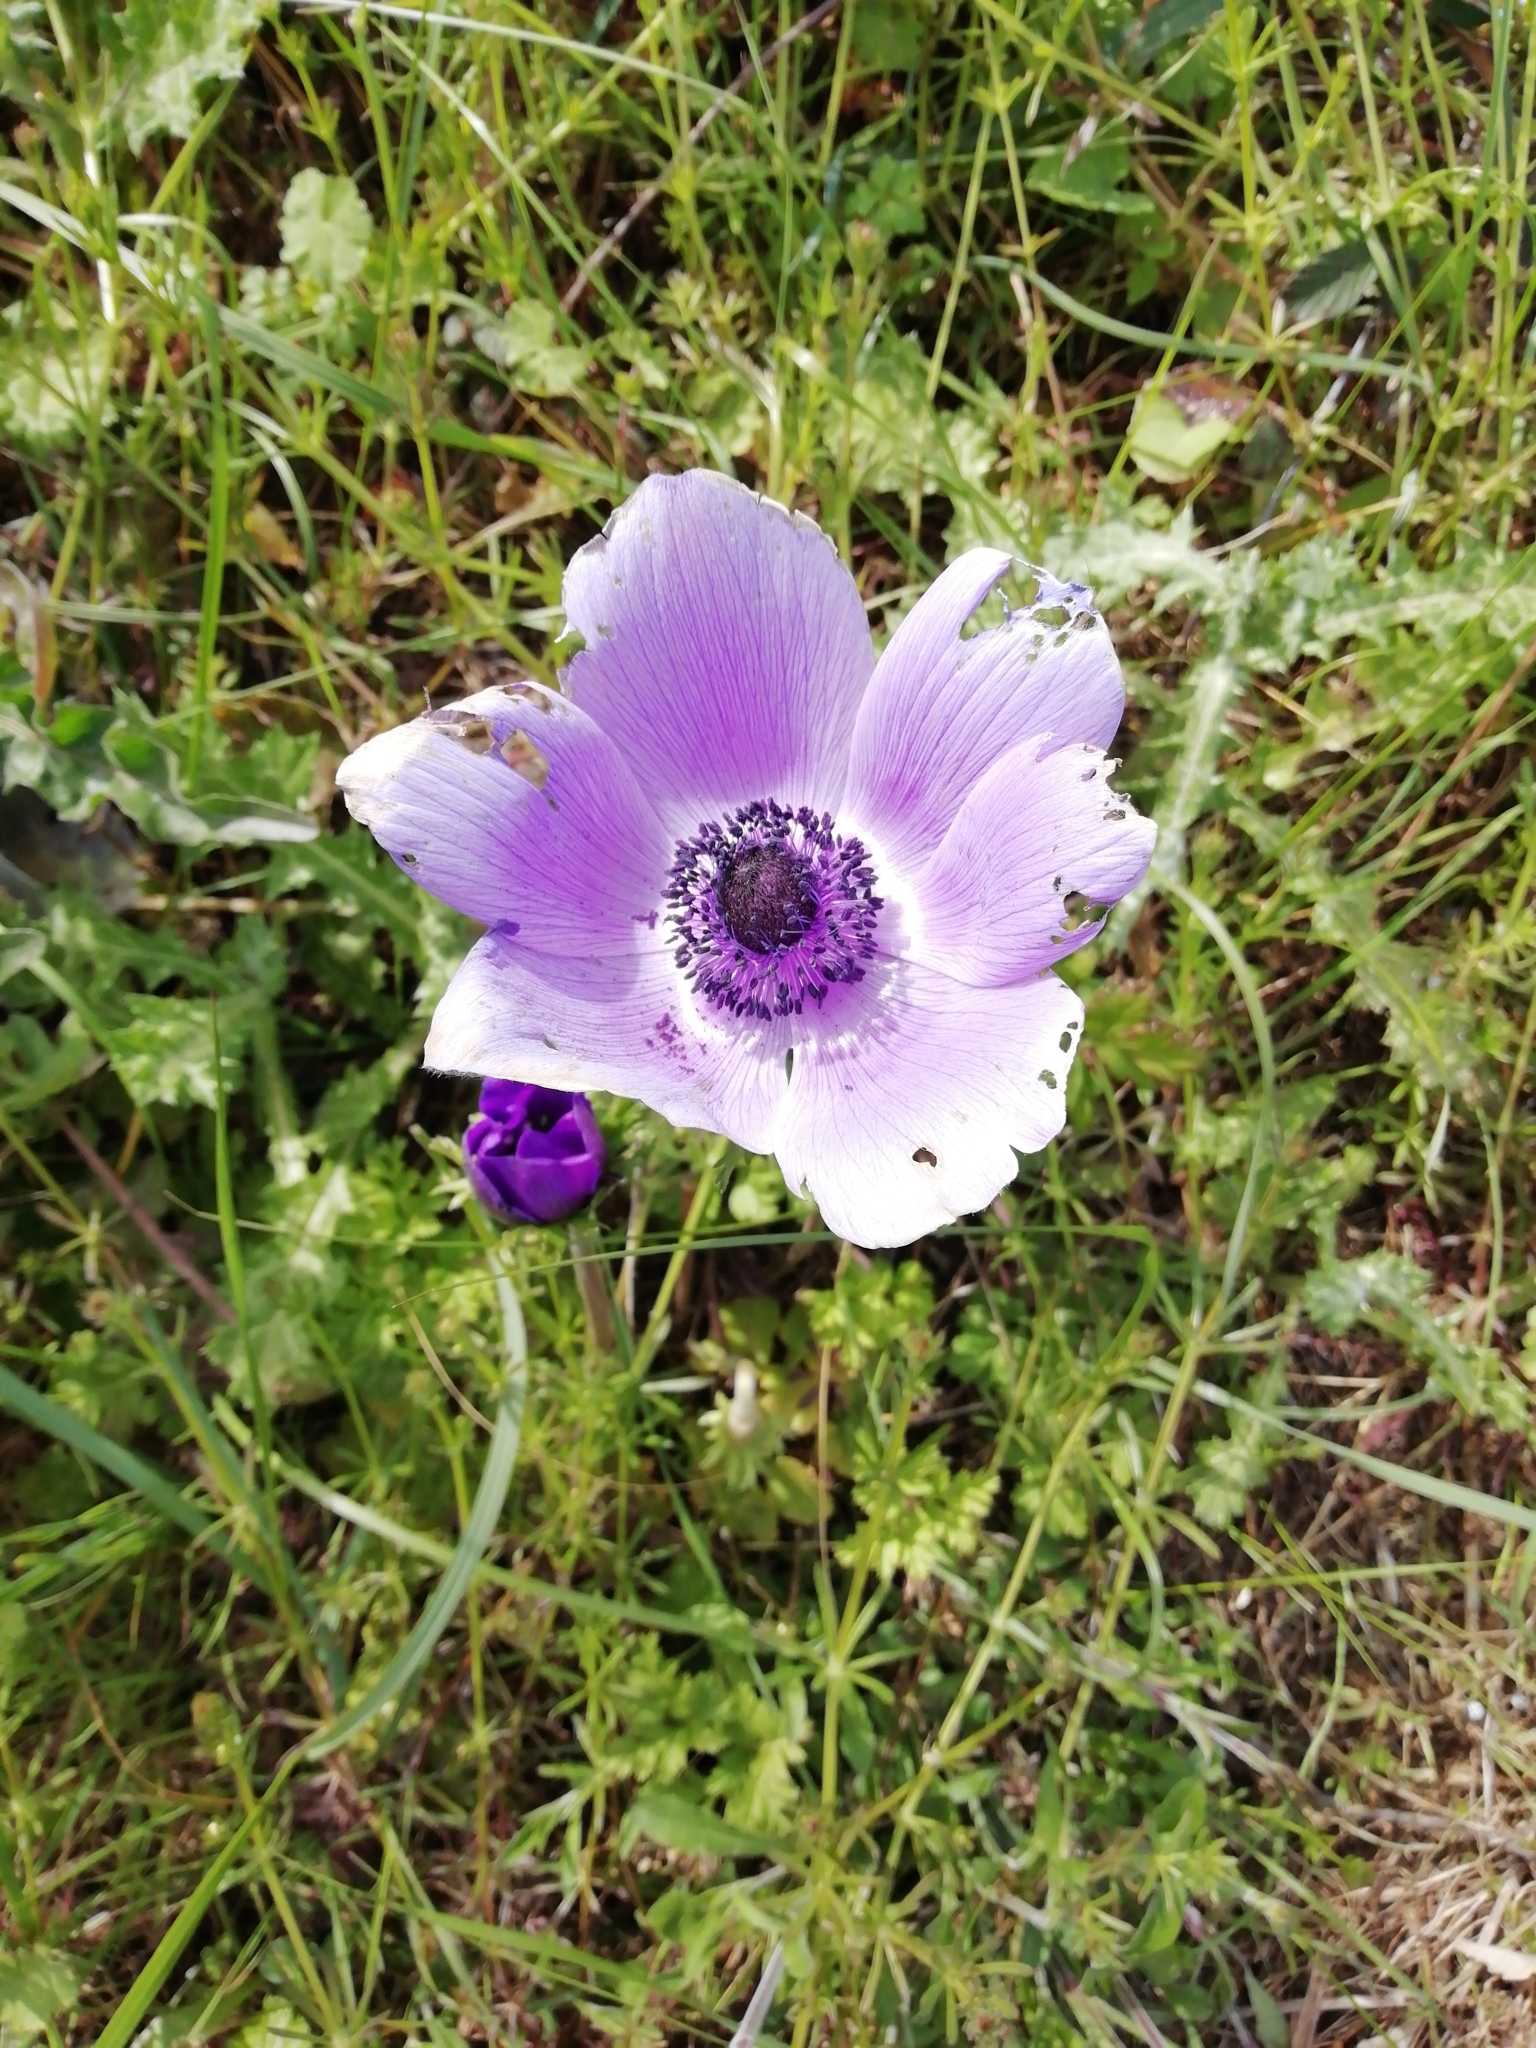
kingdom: Plantae
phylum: Tracheophyta
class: Magnoliopsida
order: Ranunculales
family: Ranunculaceae
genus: Anemone
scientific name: Anemone coronaria
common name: Poppy anemone
